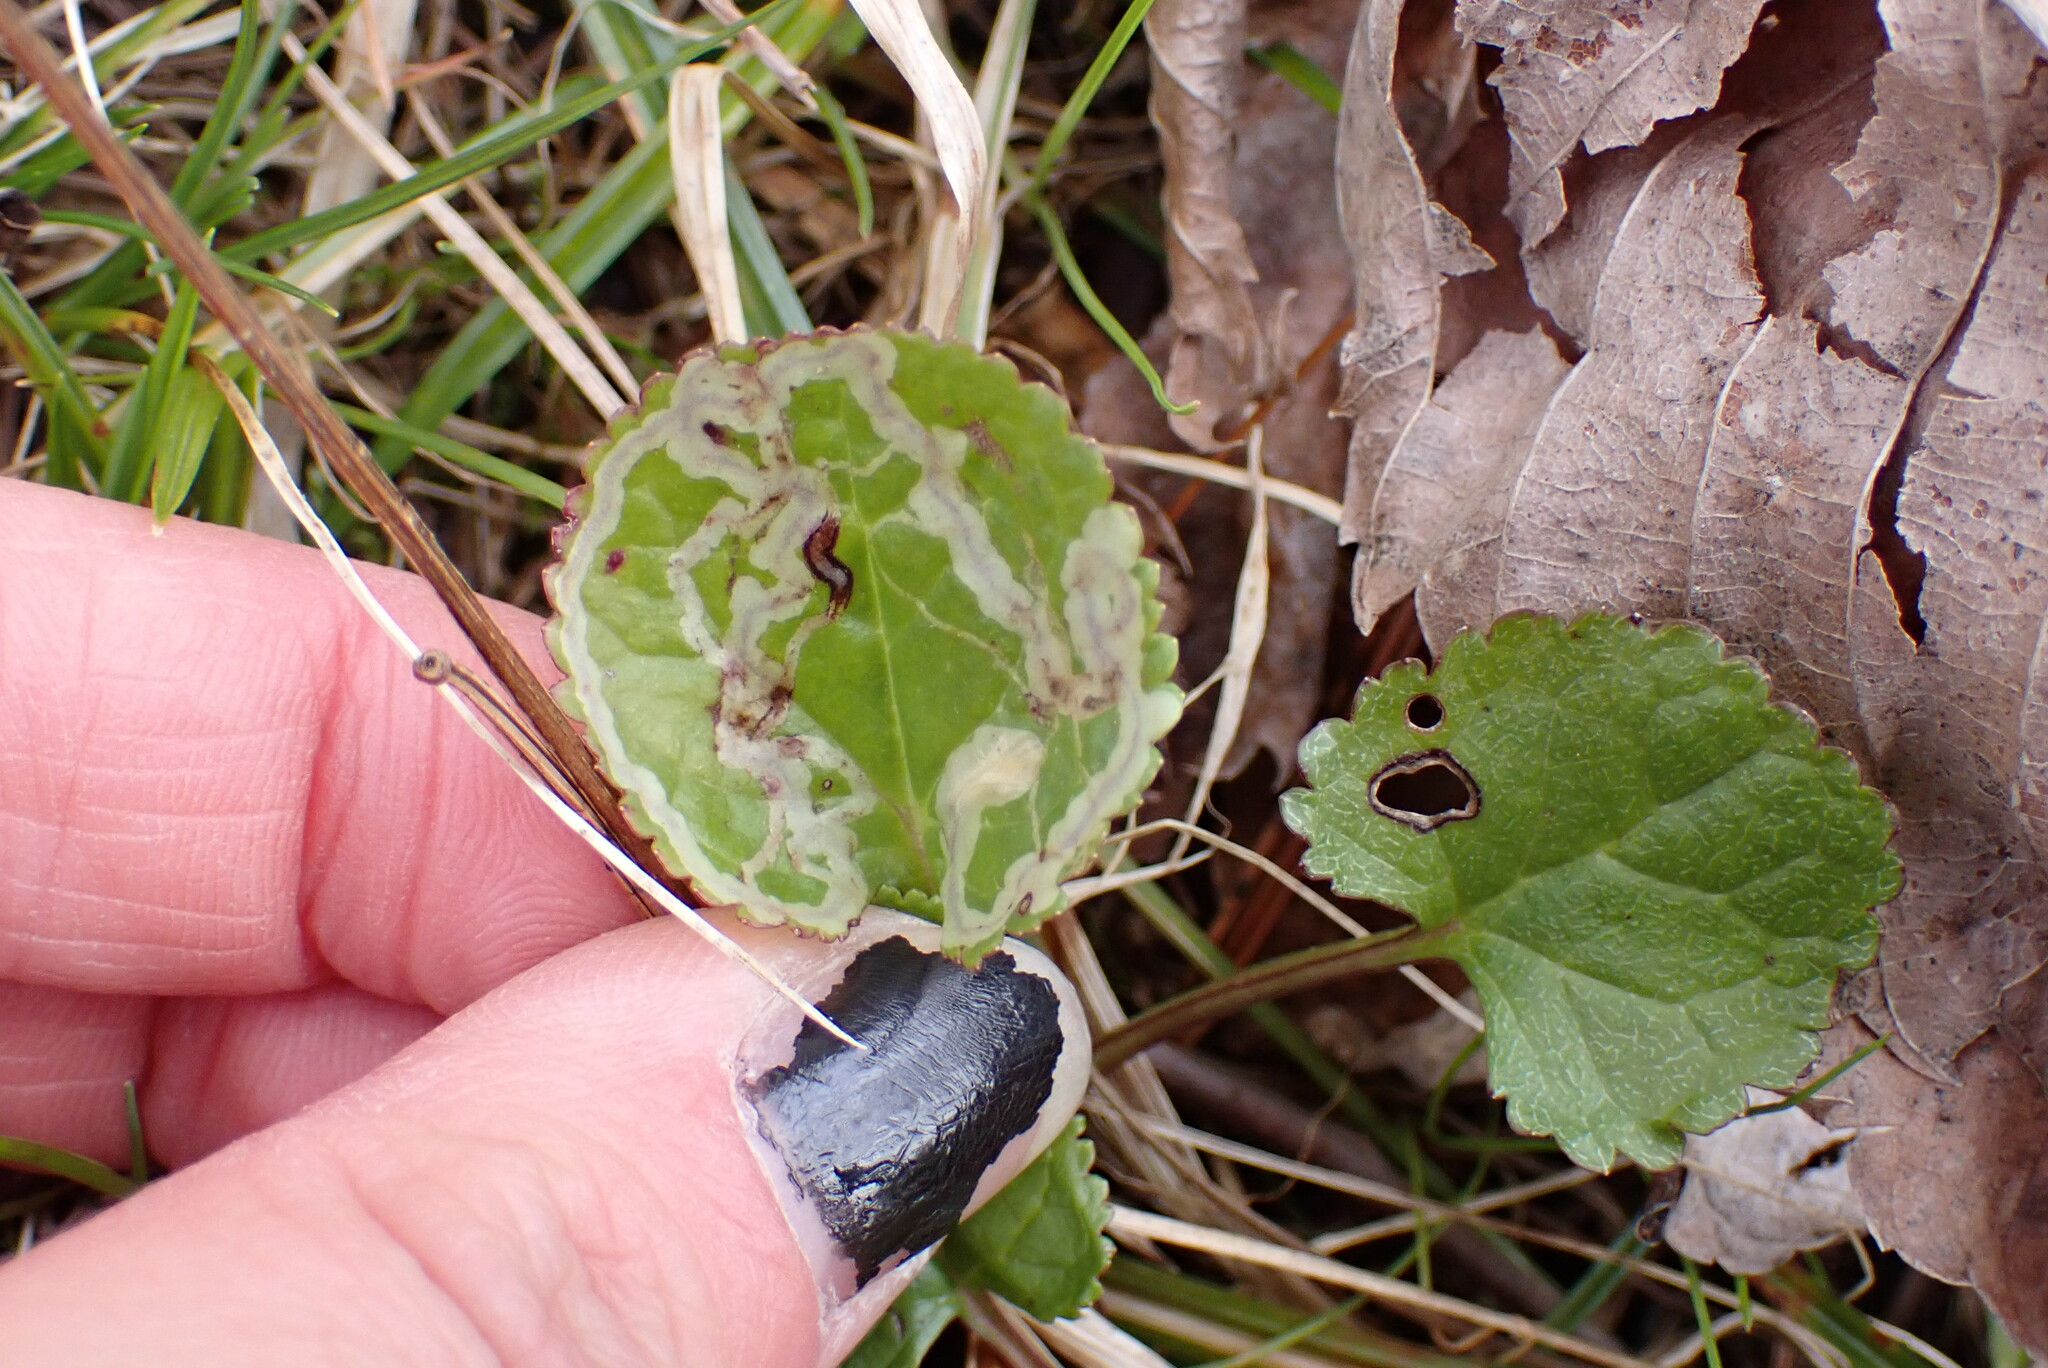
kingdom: Animalia
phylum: Arthropoda
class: Insecta
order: Lepidoptera
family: Gracillariidae
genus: Phyllocnistis
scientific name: Phyllocnistis insignis
